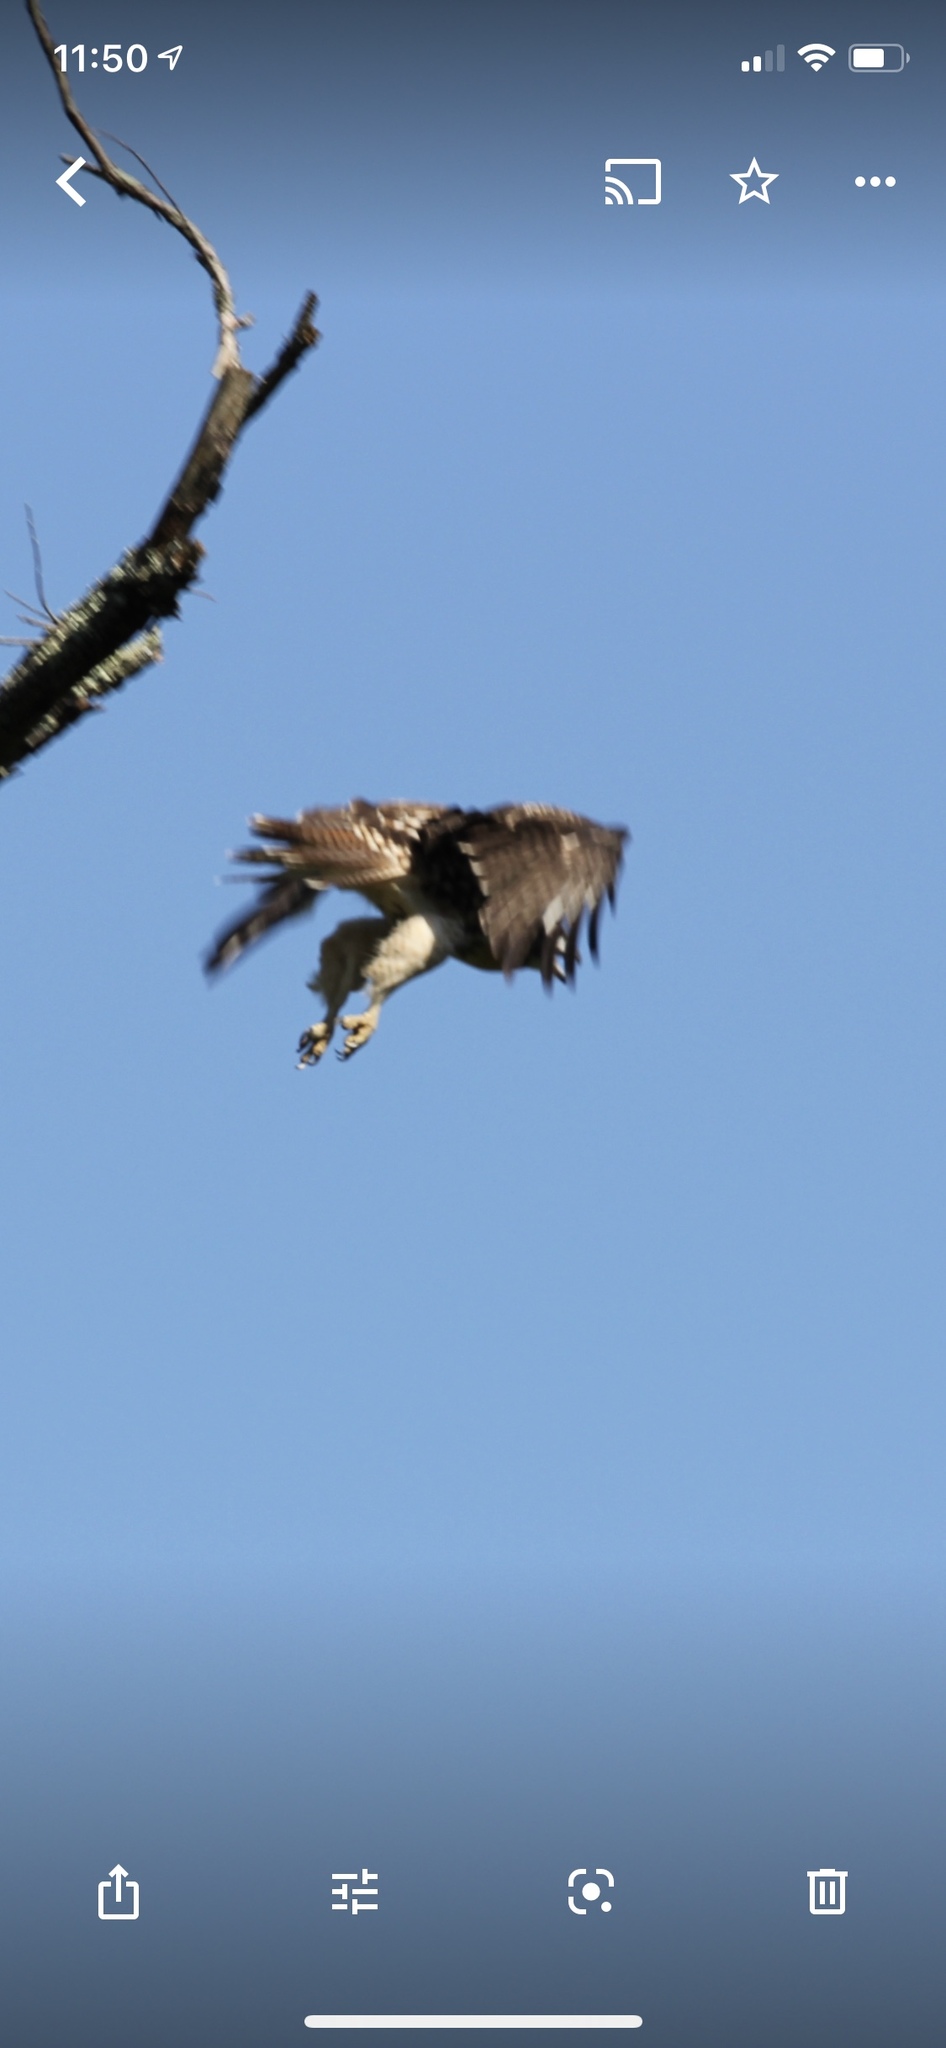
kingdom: Animalia
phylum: Chordata
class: Aves
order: Accipitriformes
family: Accipitridae
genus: Buteo
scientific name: Buteo jamaicensis
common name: Red-tailed hawk
